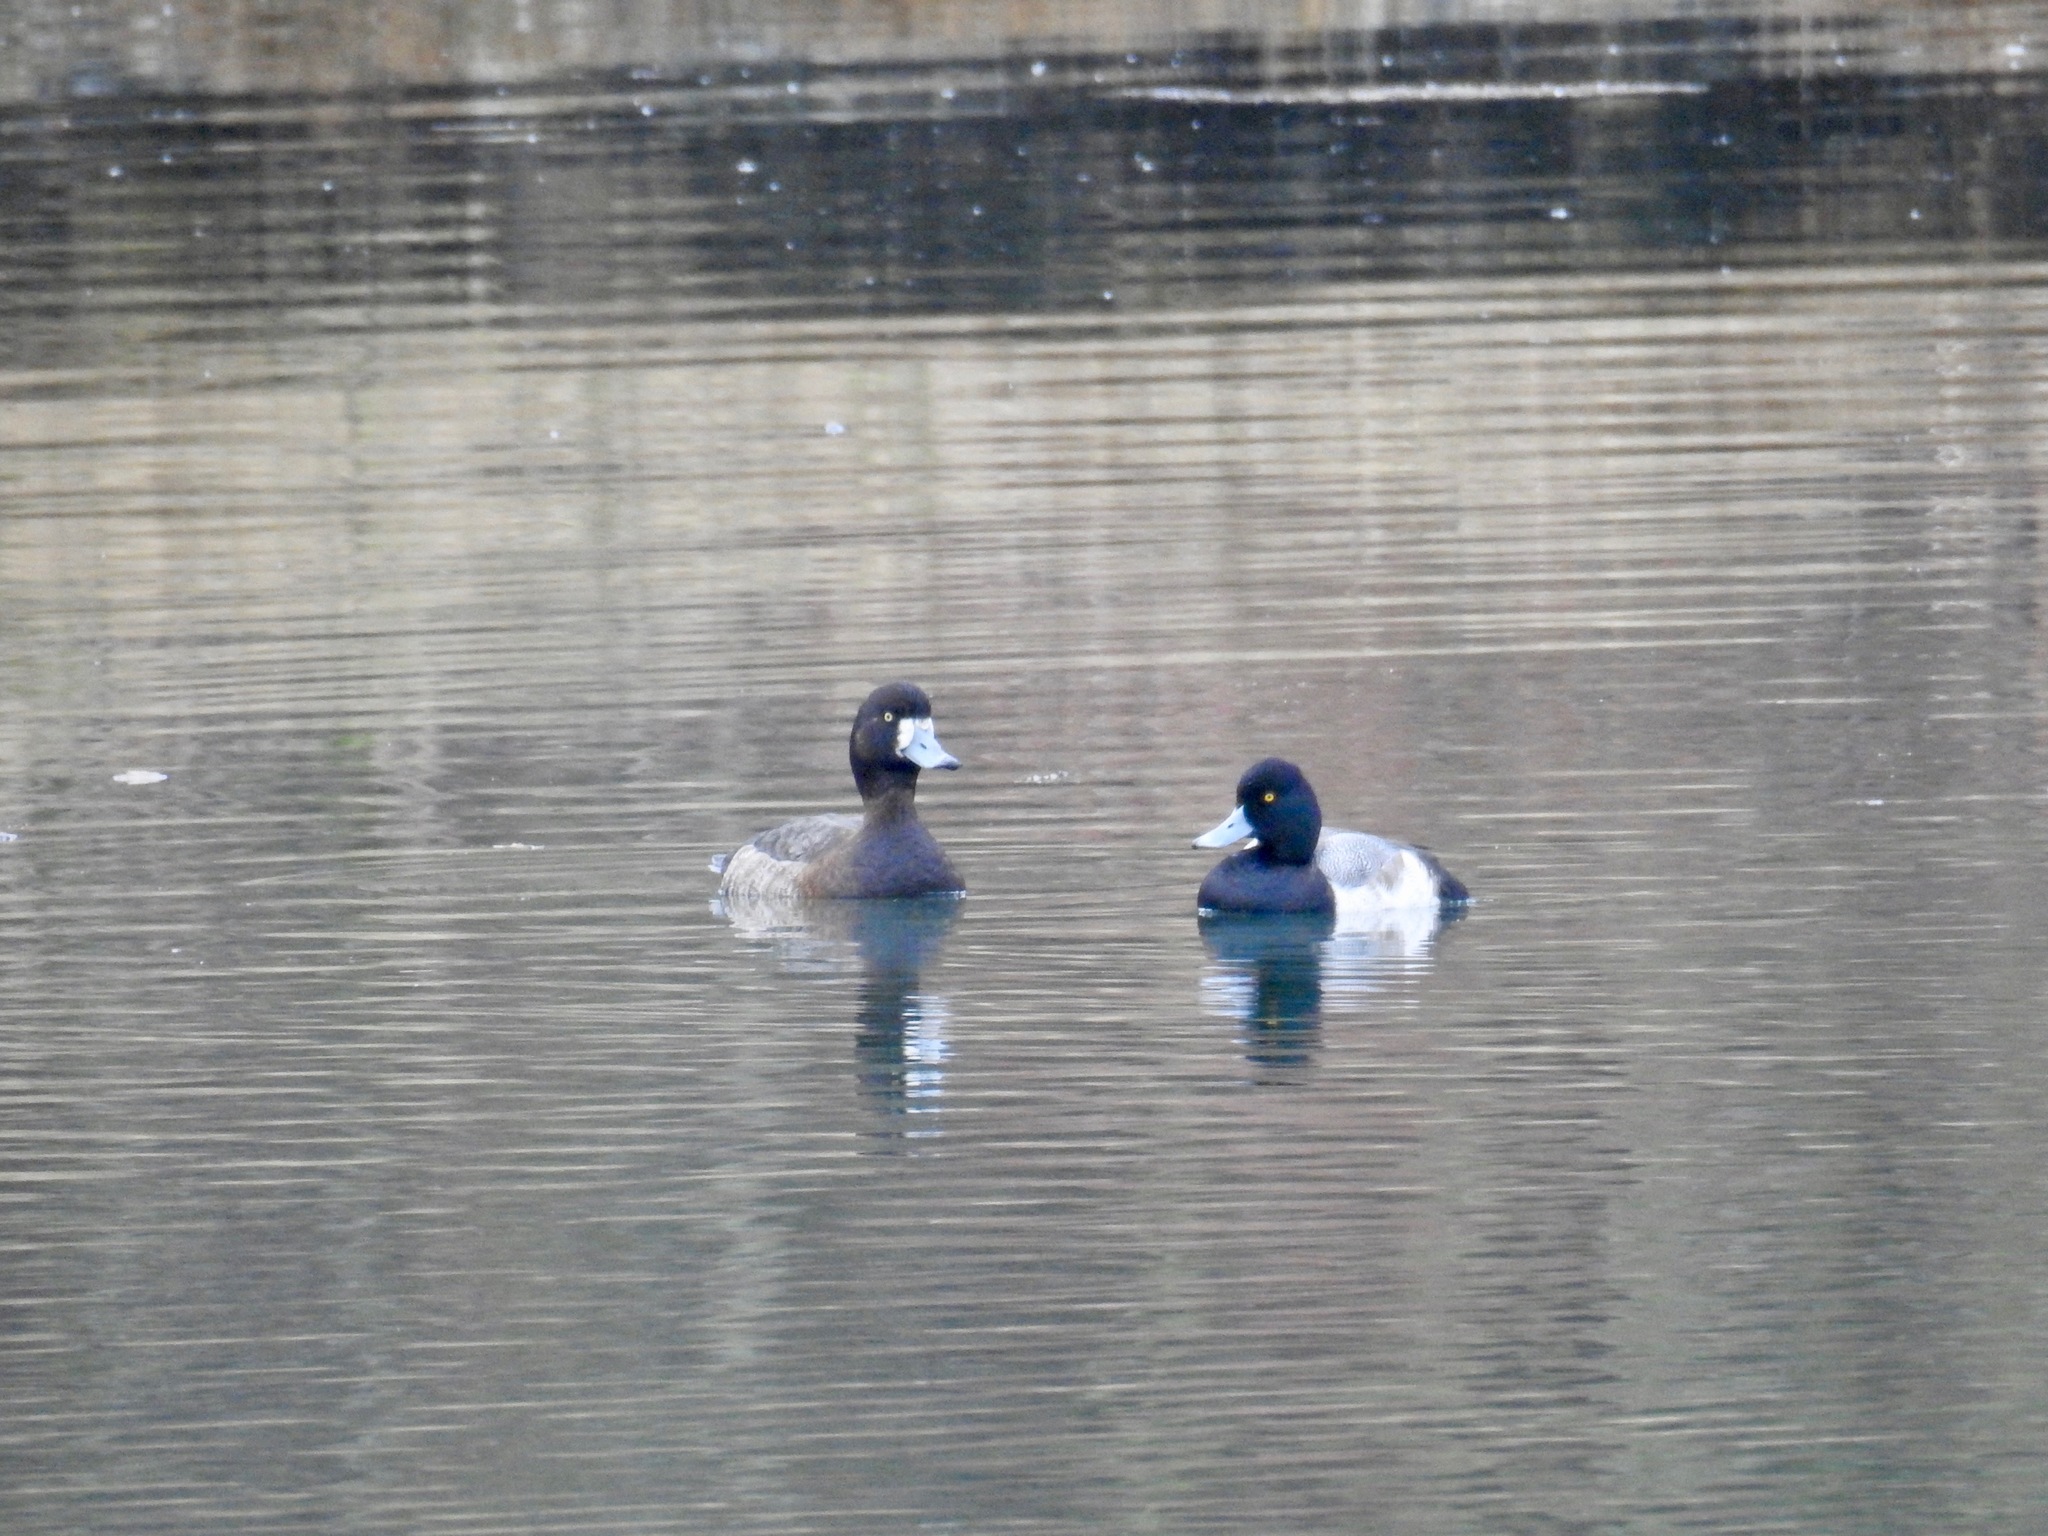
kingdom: Animalia
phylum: Chordata
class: Aves
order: Anseriformes
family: Anatidae
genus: Aythya
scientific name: Aythya marila
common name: Greater scaup
